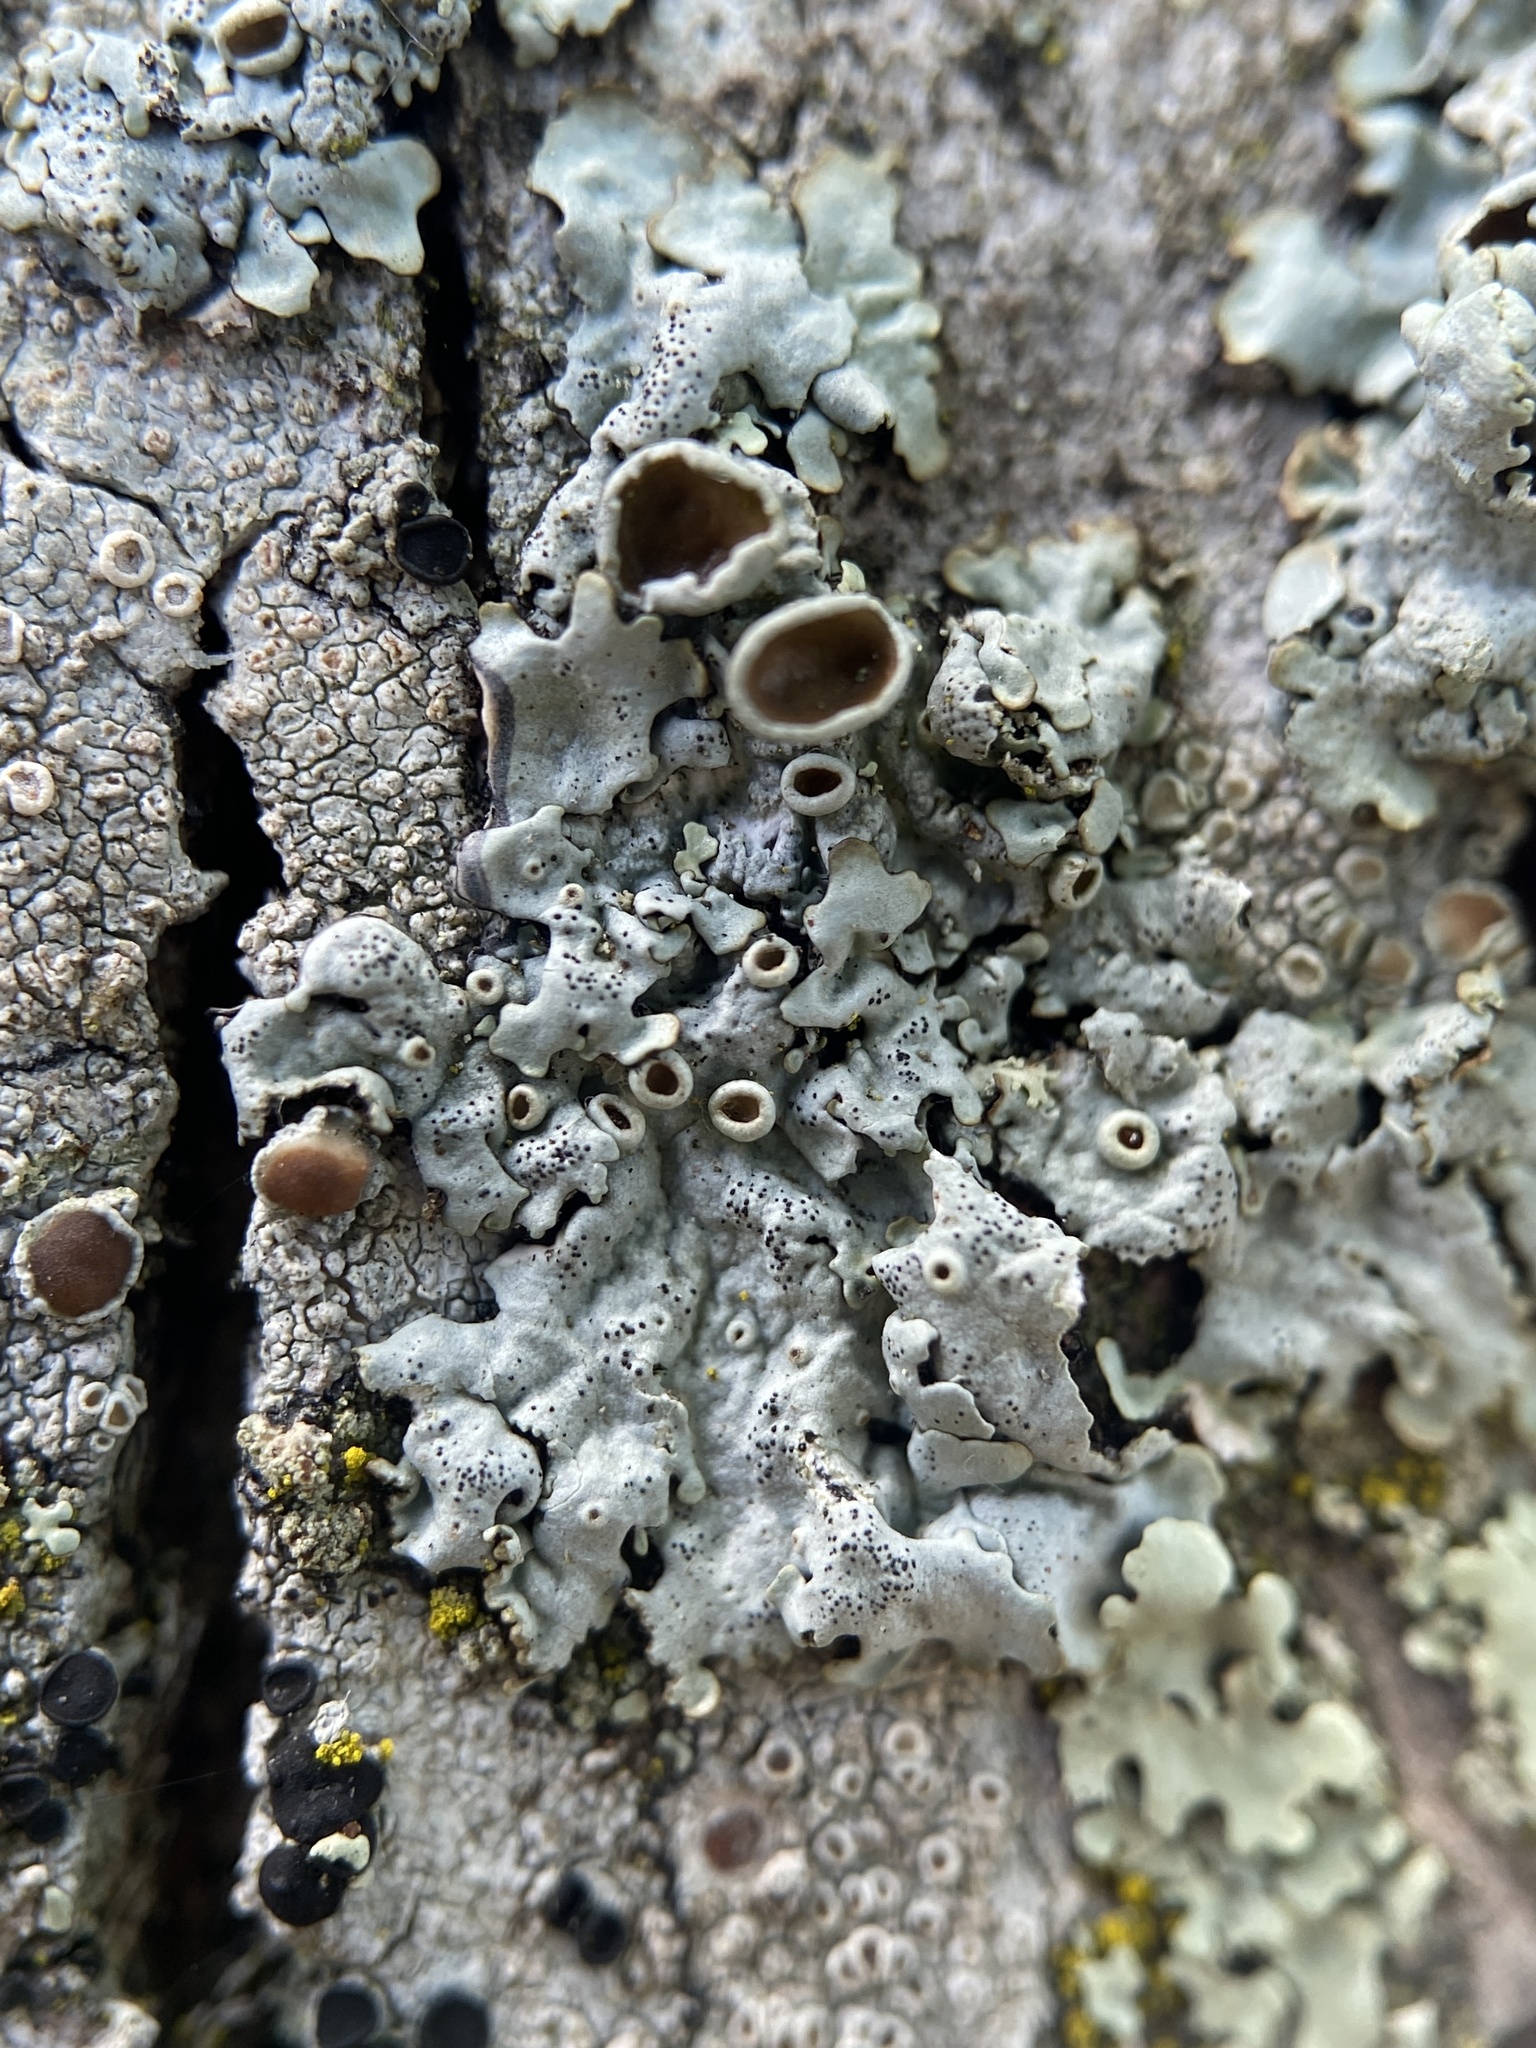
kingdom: Fungi
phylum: Ascomycota
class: Lecanoromycetes
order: Lecanorales
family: Parmeliaceae
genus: Myelochroa
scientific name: Myelochroa galbina
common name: Smooth axil-bristle lichen
